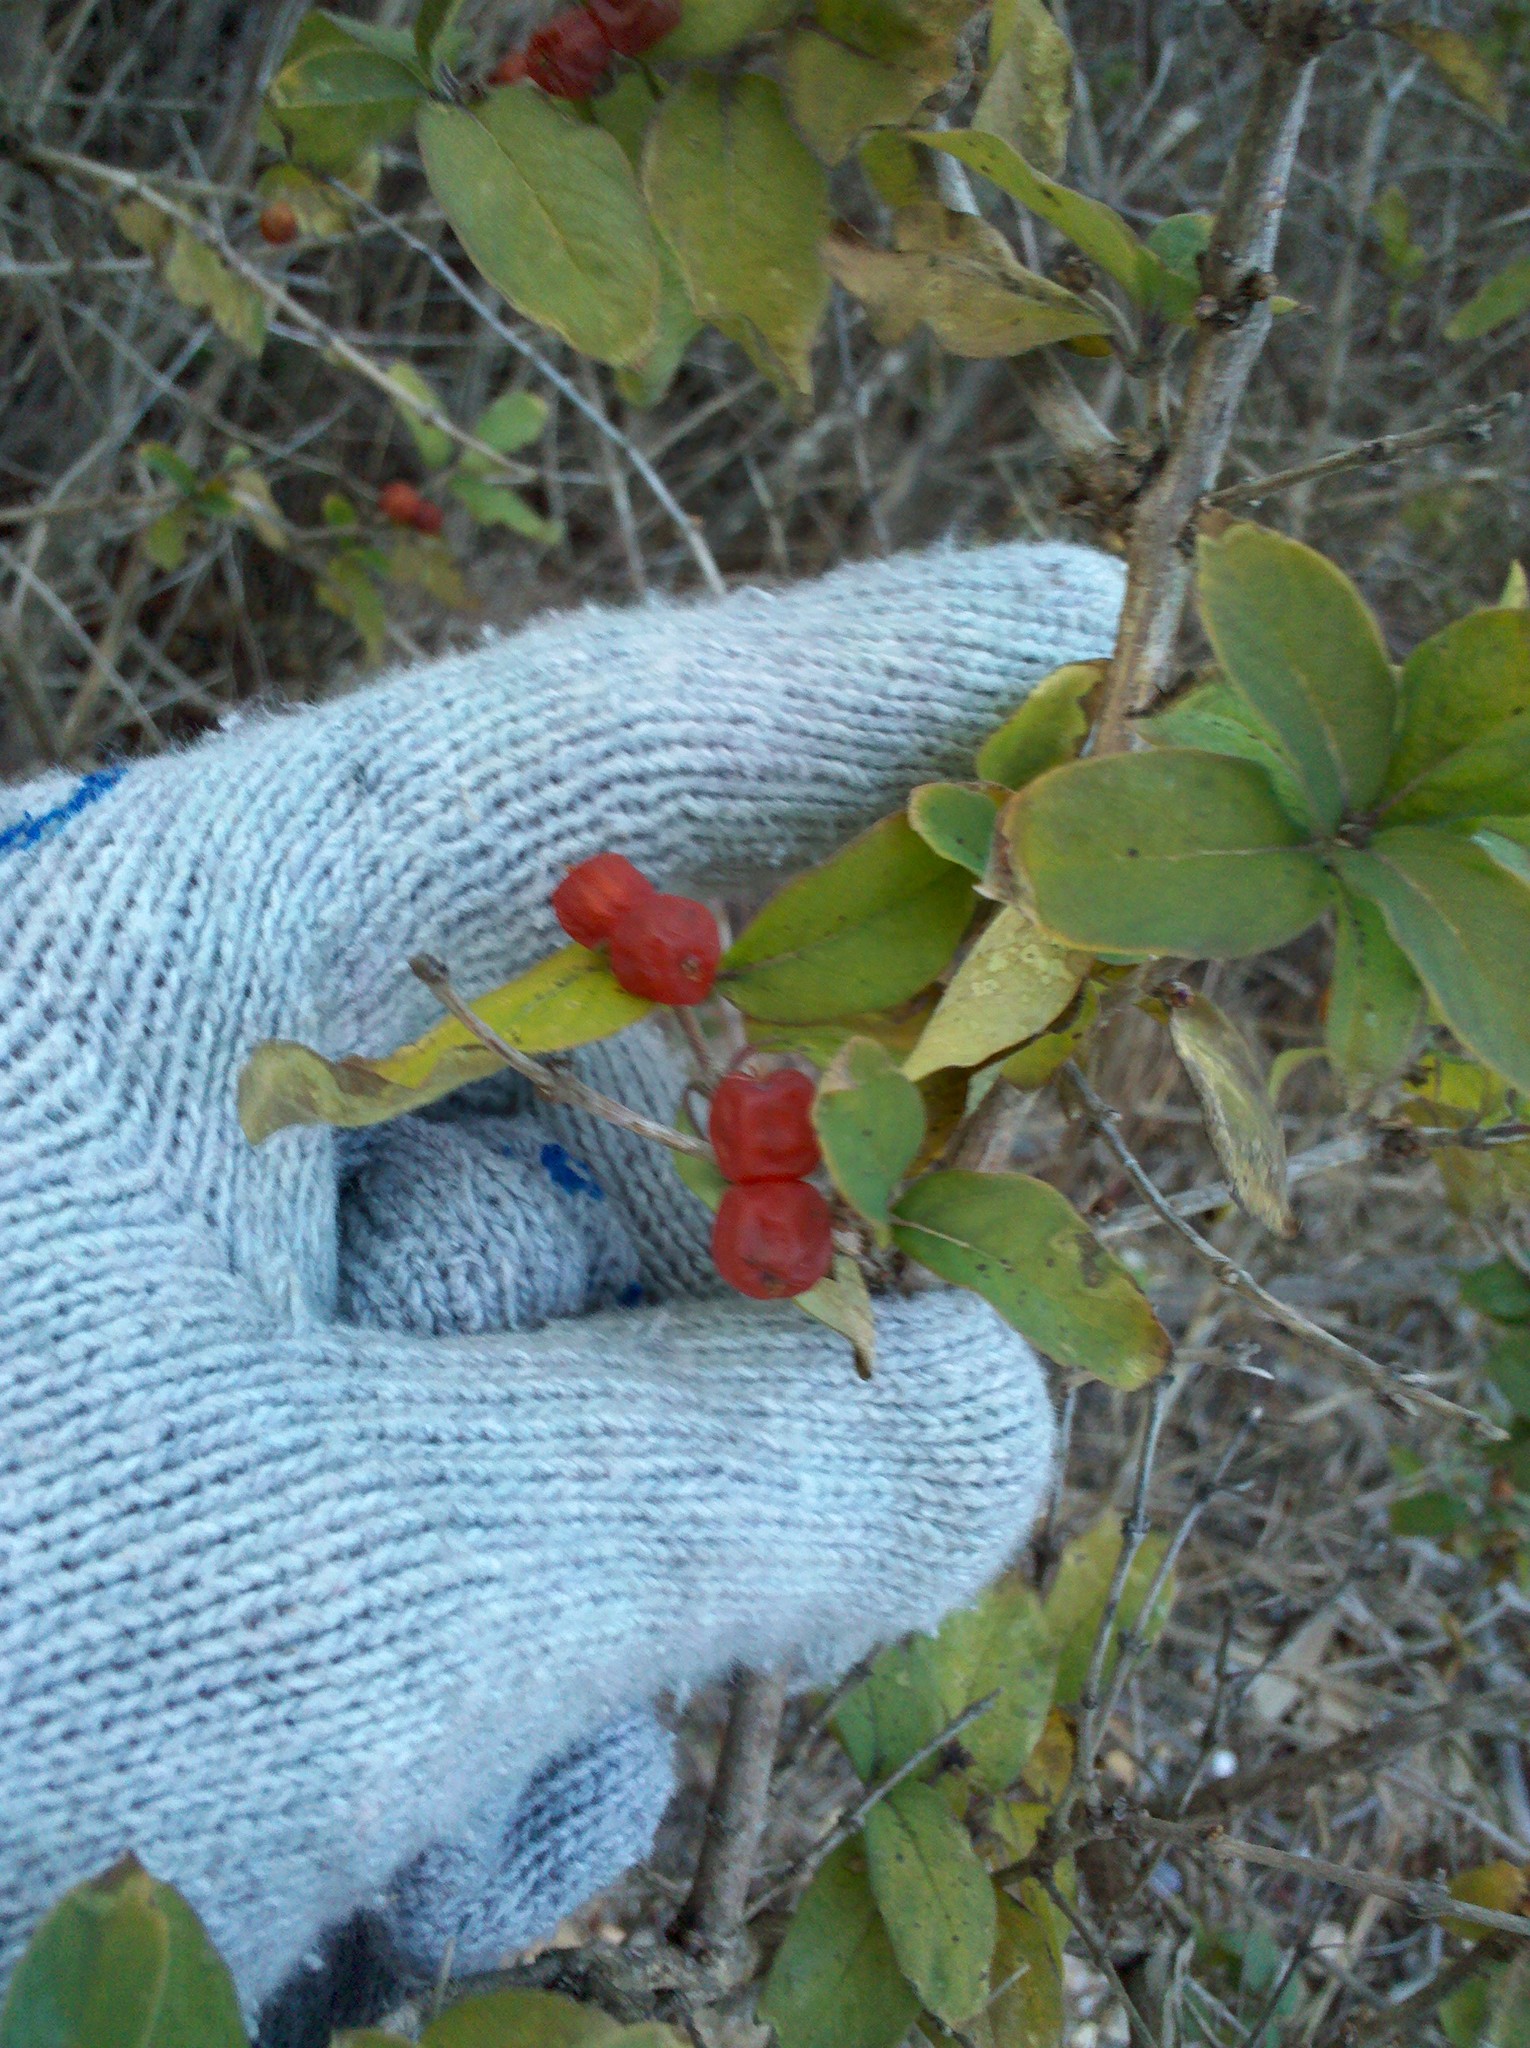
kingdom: Plantae
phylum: Tracheophyta
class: Magnoliopsida
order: Dipsacales
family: Caprifoliaceae
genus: Lonicera
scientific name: Lonicera
